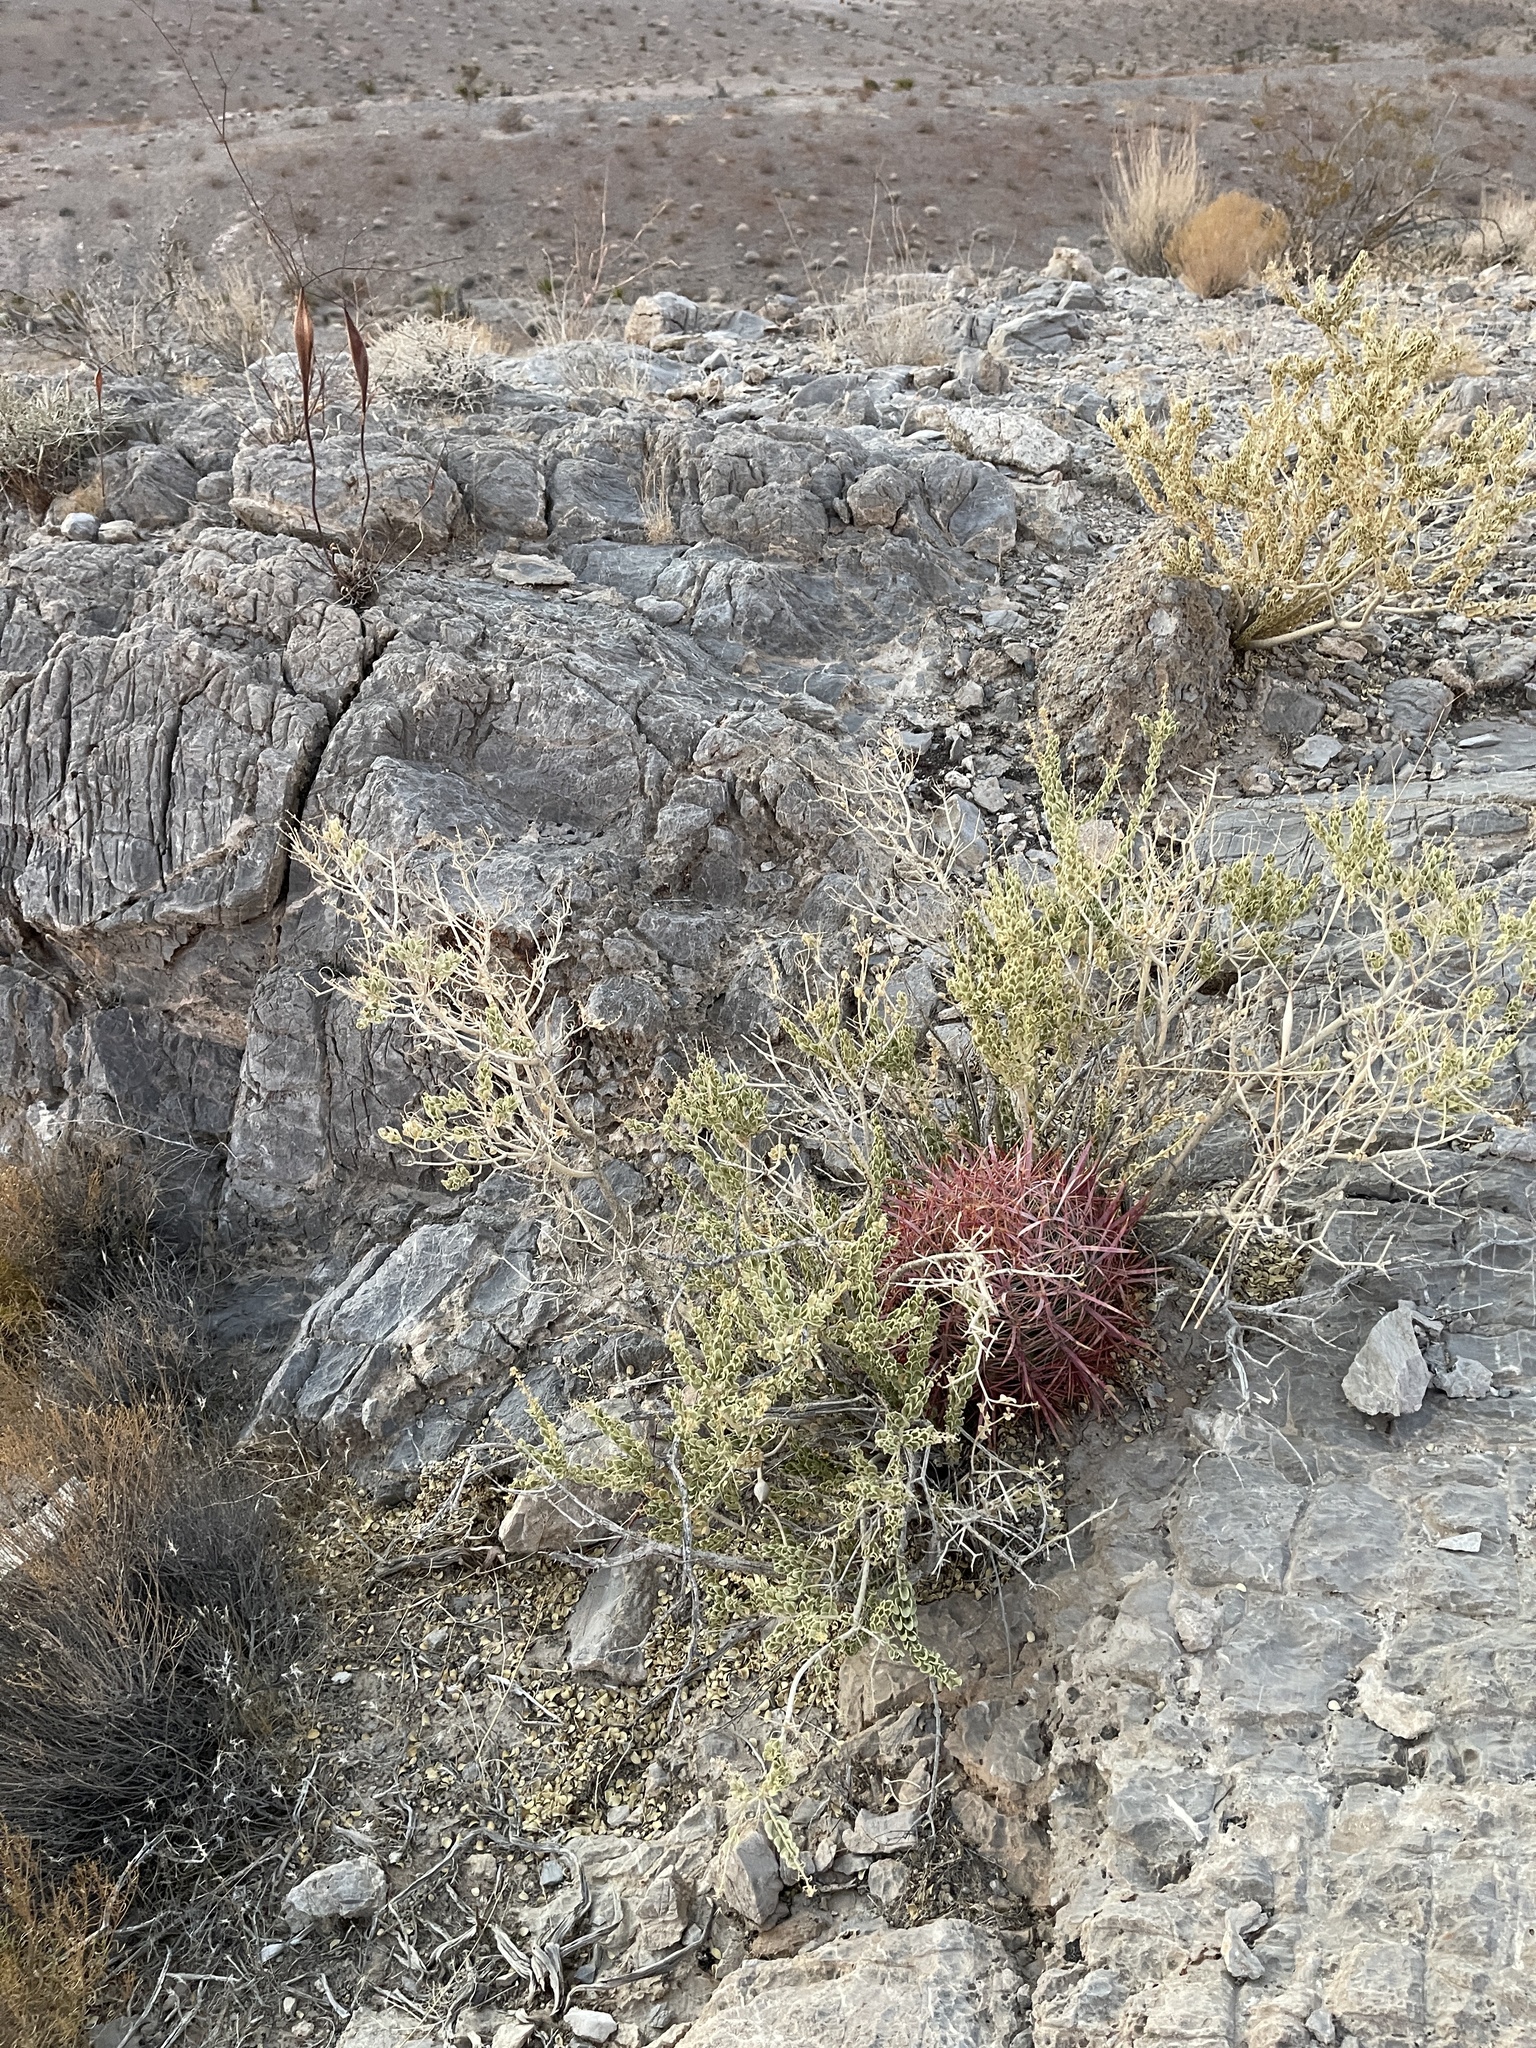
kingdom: Plantae
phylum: Tracheophyta
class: Magnoliopsida
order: Caryophyllales
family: Cactaceae
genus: Ferocactus
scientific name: Ferocactus cylindraceus
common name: California barrel cactus
